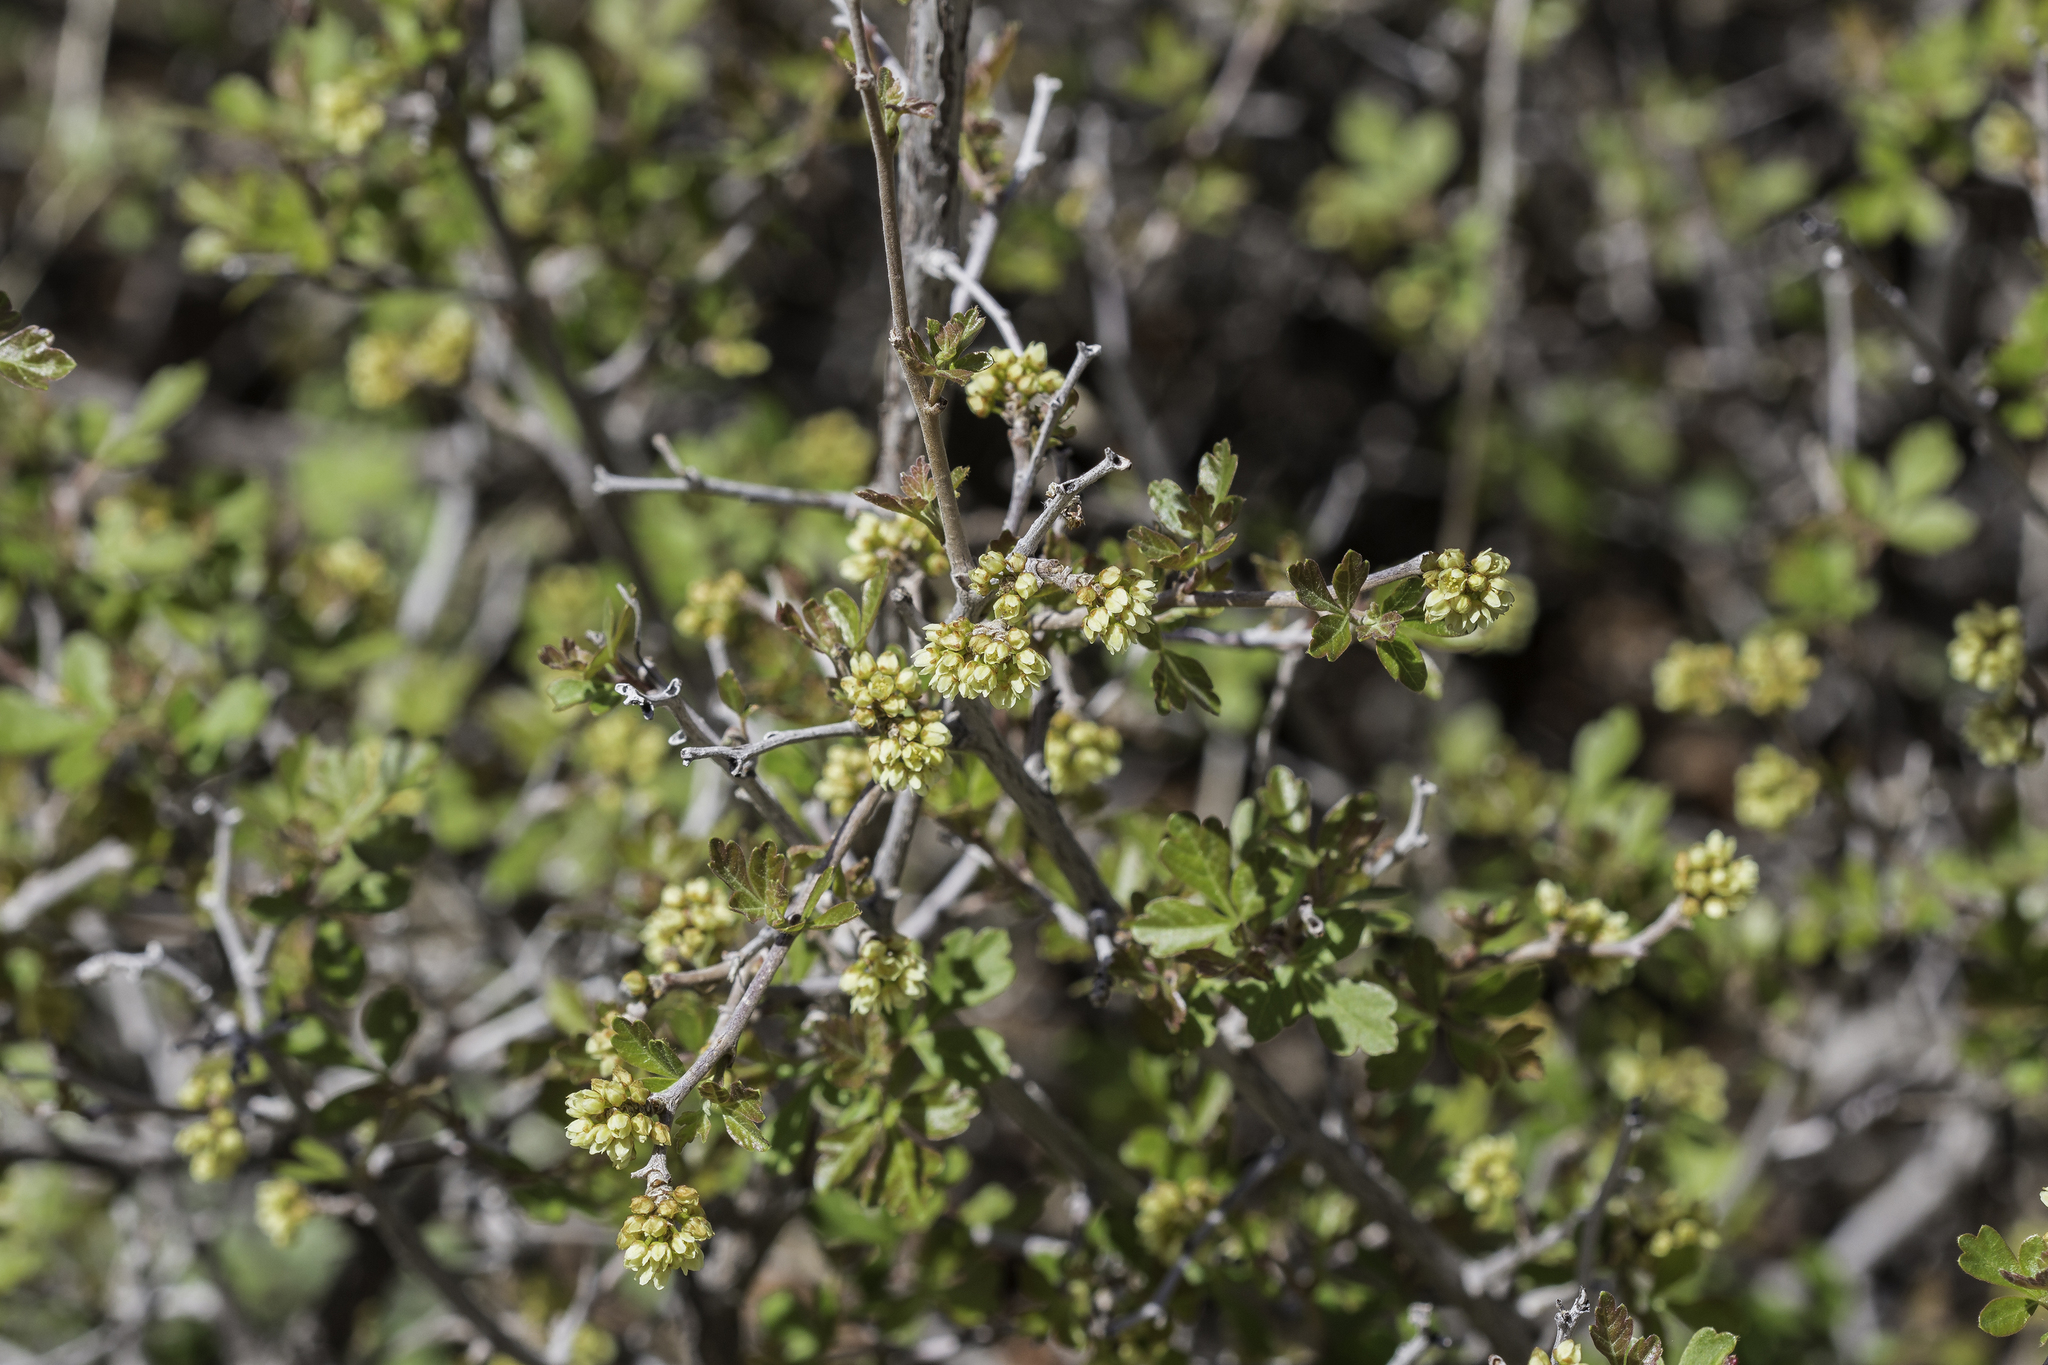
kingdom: Plantae
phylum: Tracheophyta
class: Magnoliopsida
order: Sapindales
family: Anacardiaceae
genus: Rhus
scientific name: Rhus aromatica
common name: Aromatic sumac
